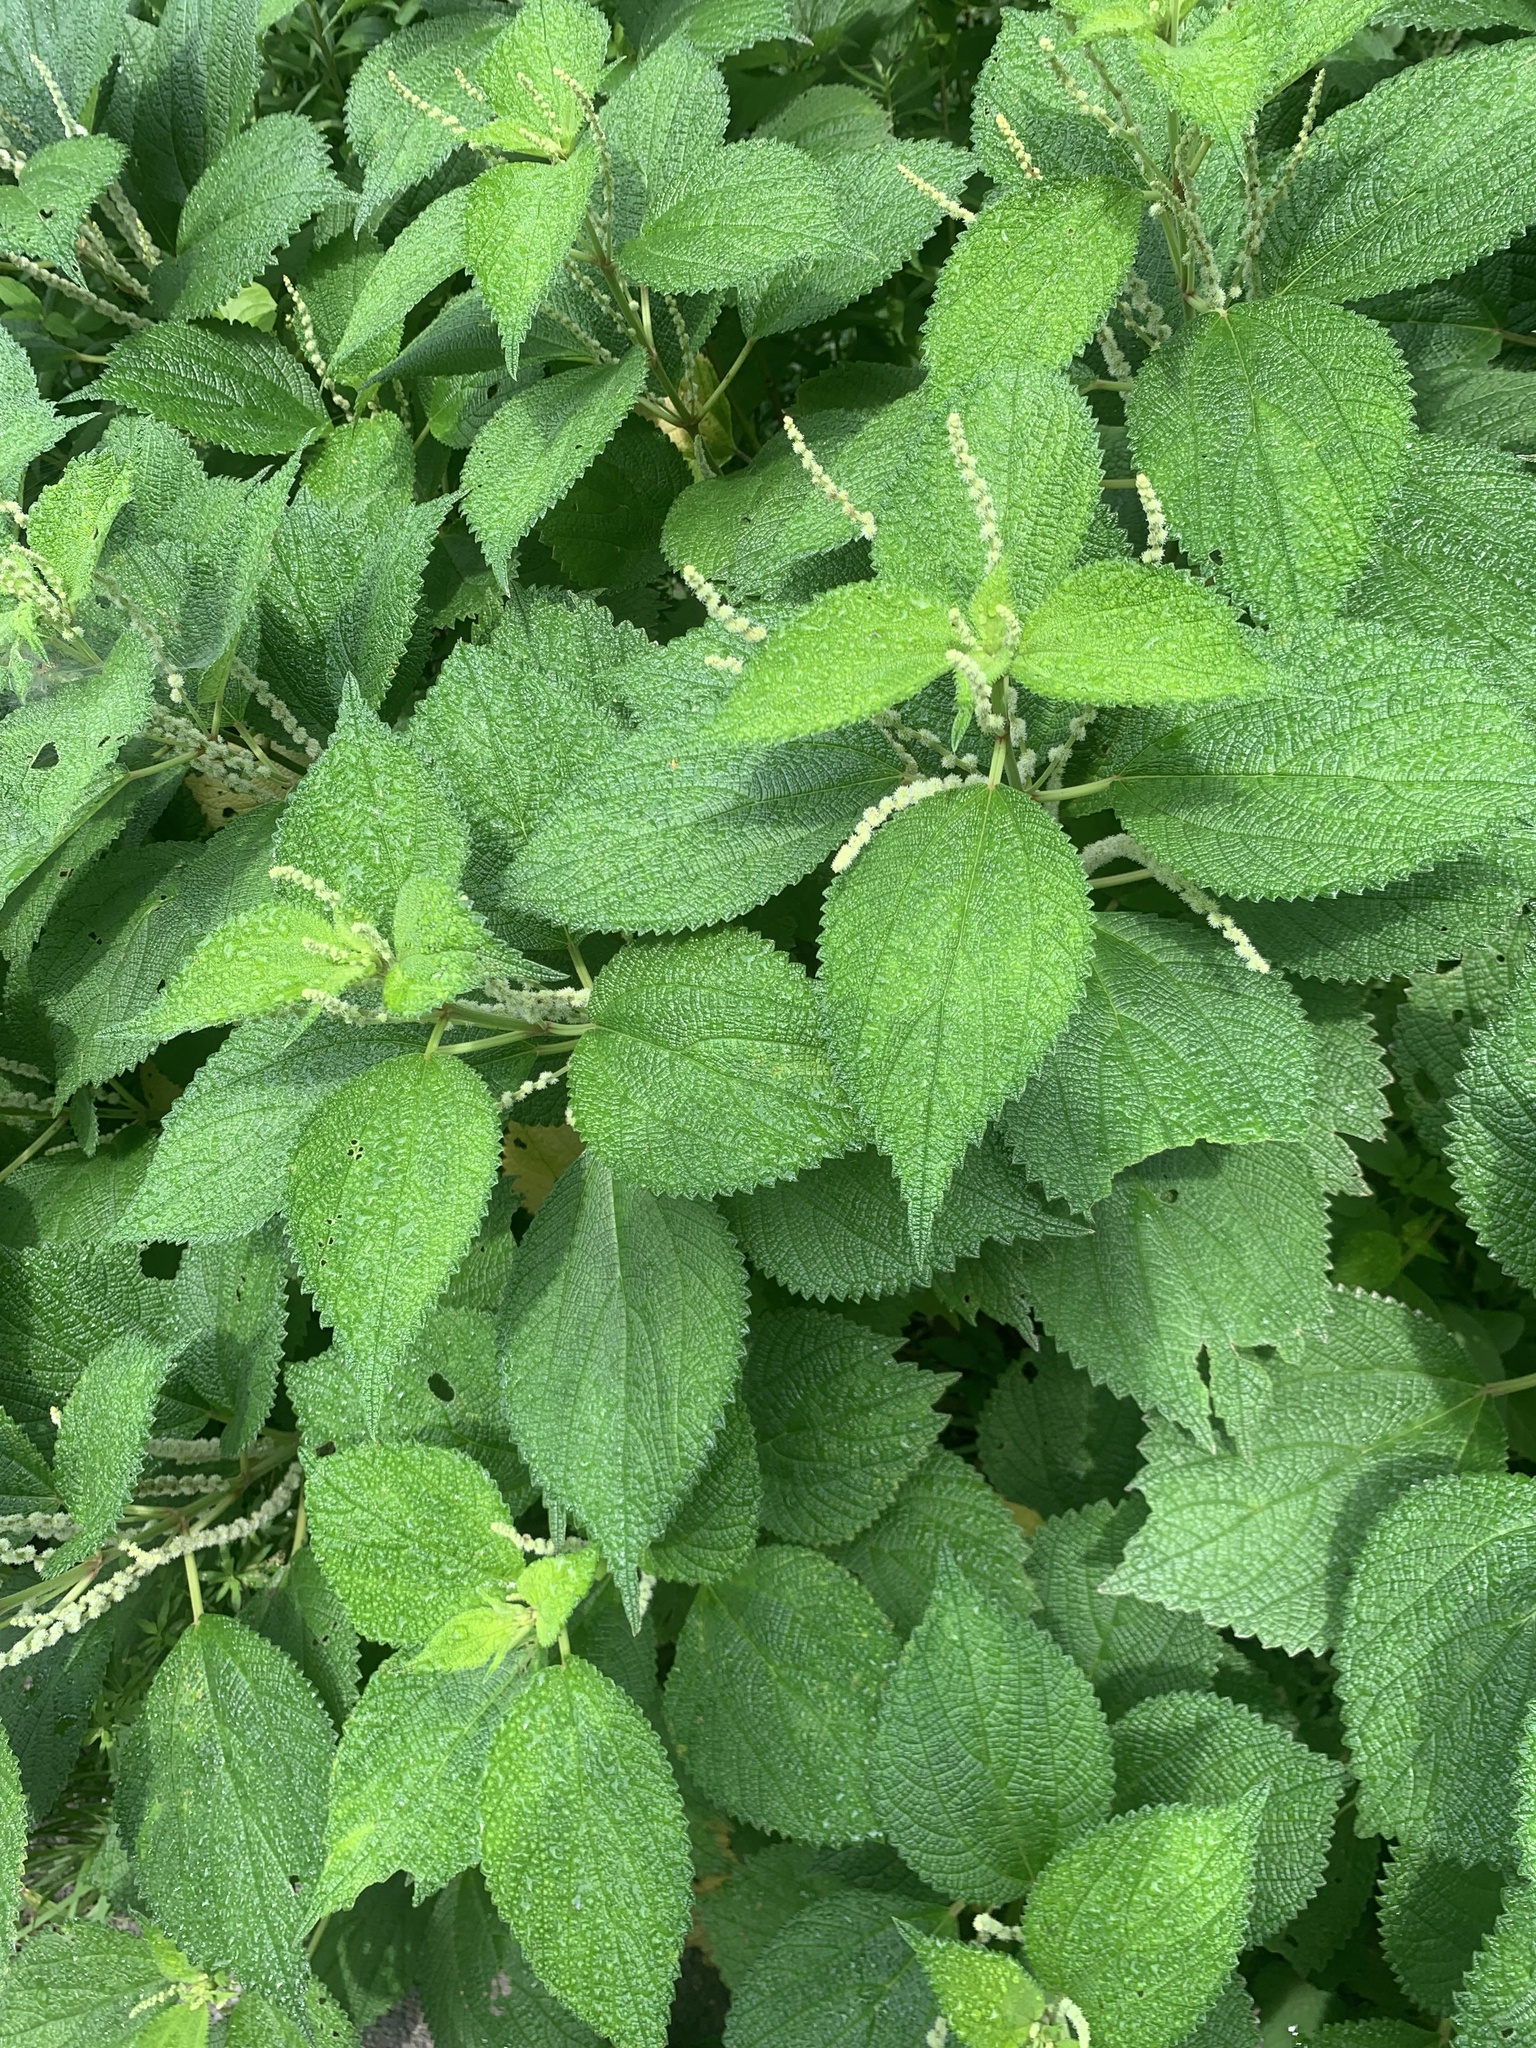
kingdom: Plantae
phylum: Tracheophyta
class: Magnoliopsida
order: Rosales
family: Urticaceae
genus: Boehmeria
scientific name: Boehmeria nivea
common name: Ramie chinese grass
